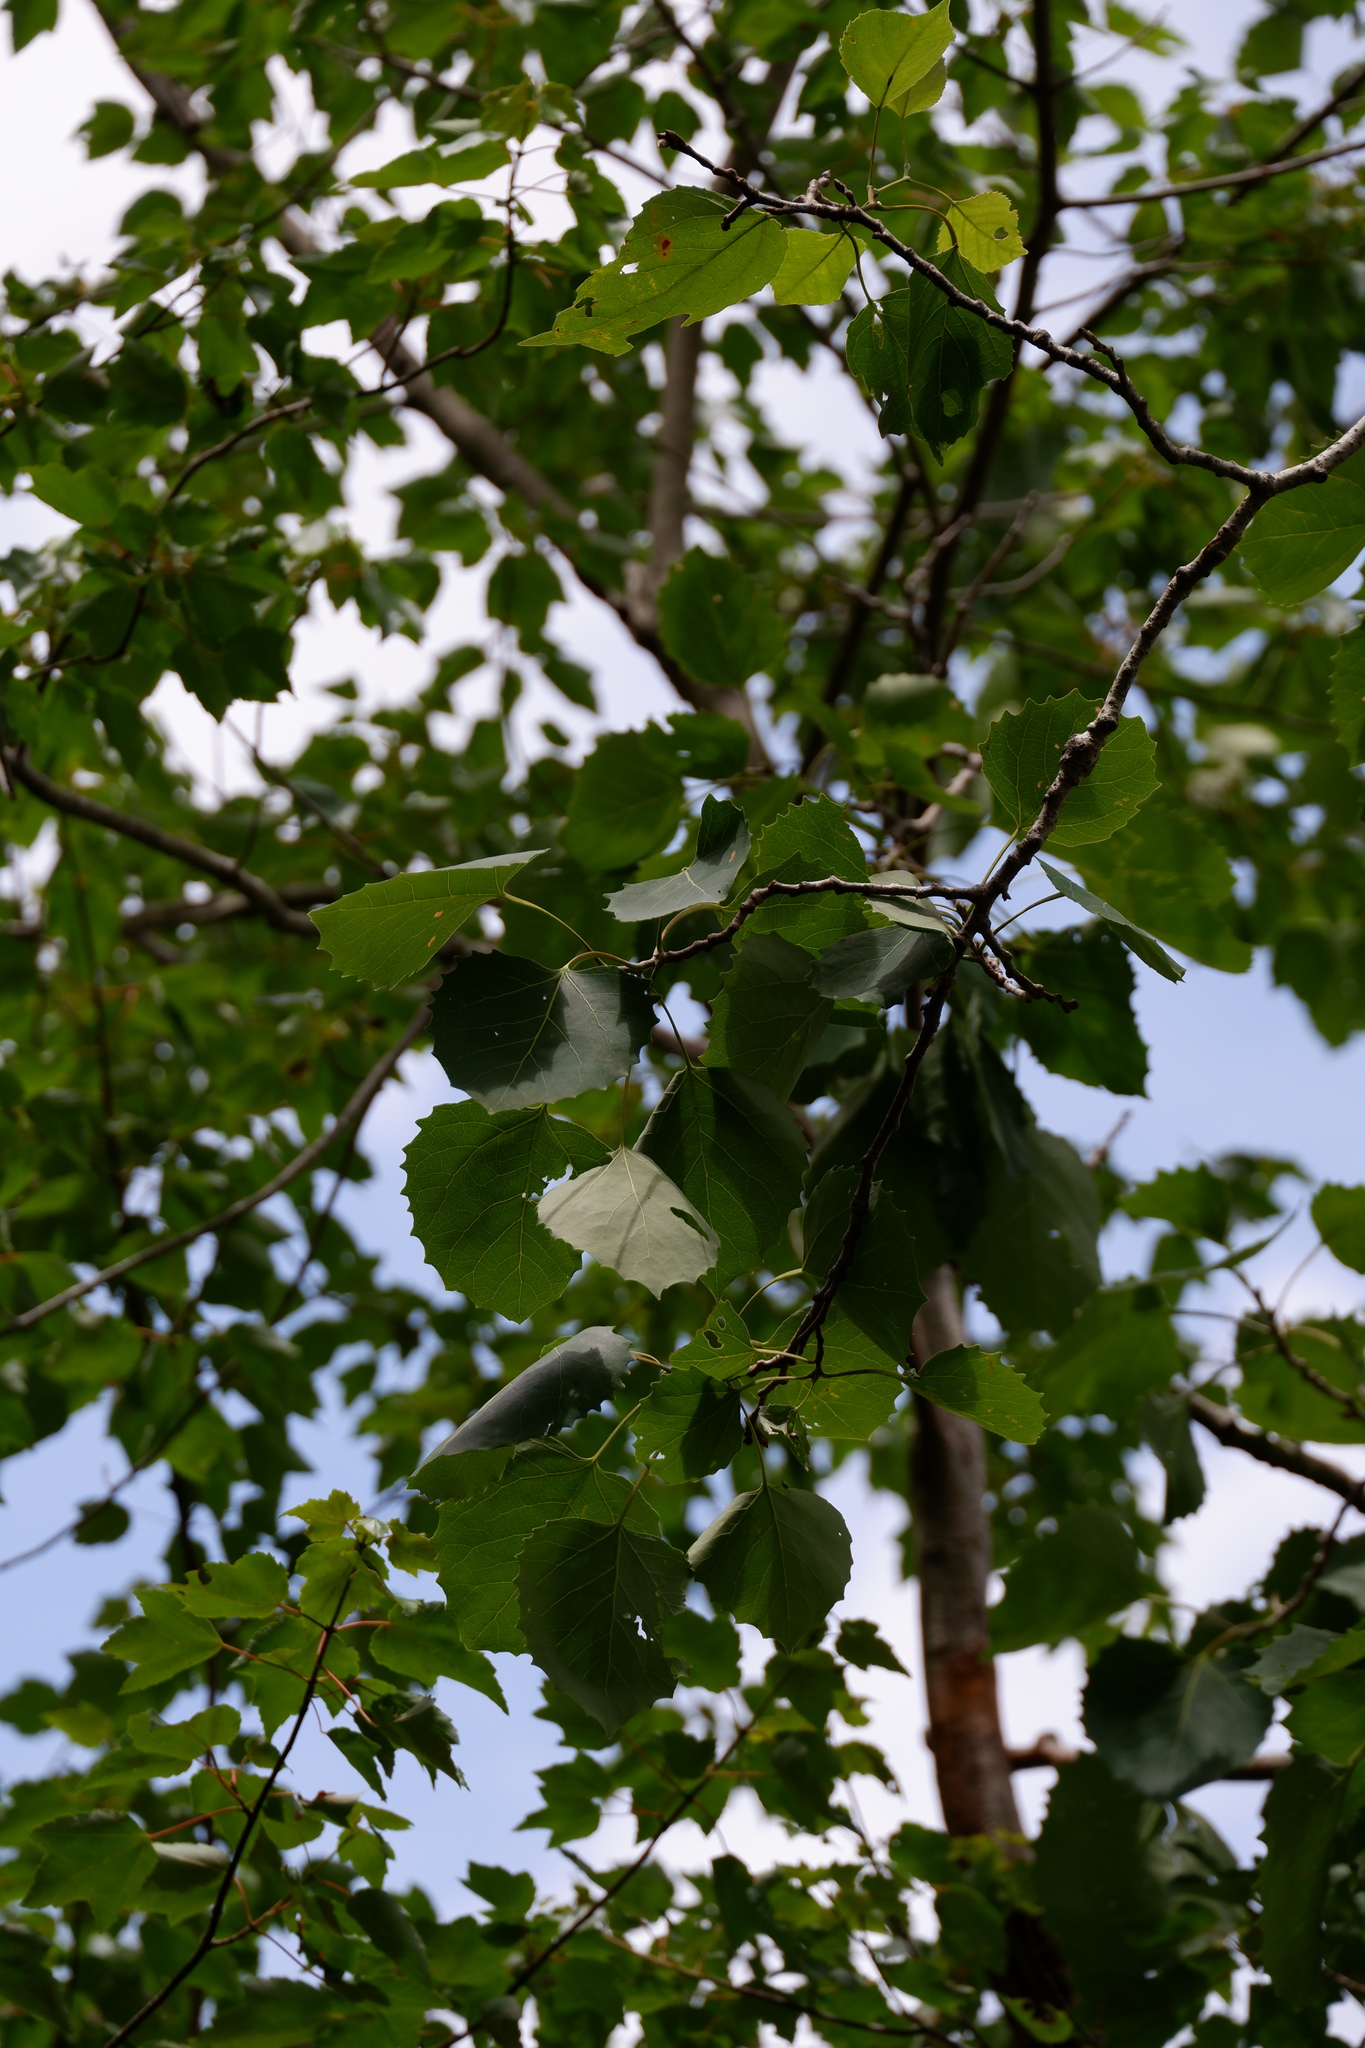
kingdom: Plantae
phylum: Tracheophyta
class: Magnoliopsida
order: Malpighiales
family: Salicaceae
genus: Populus
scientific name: Populus grandidentata
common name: Bigtooth aspen
